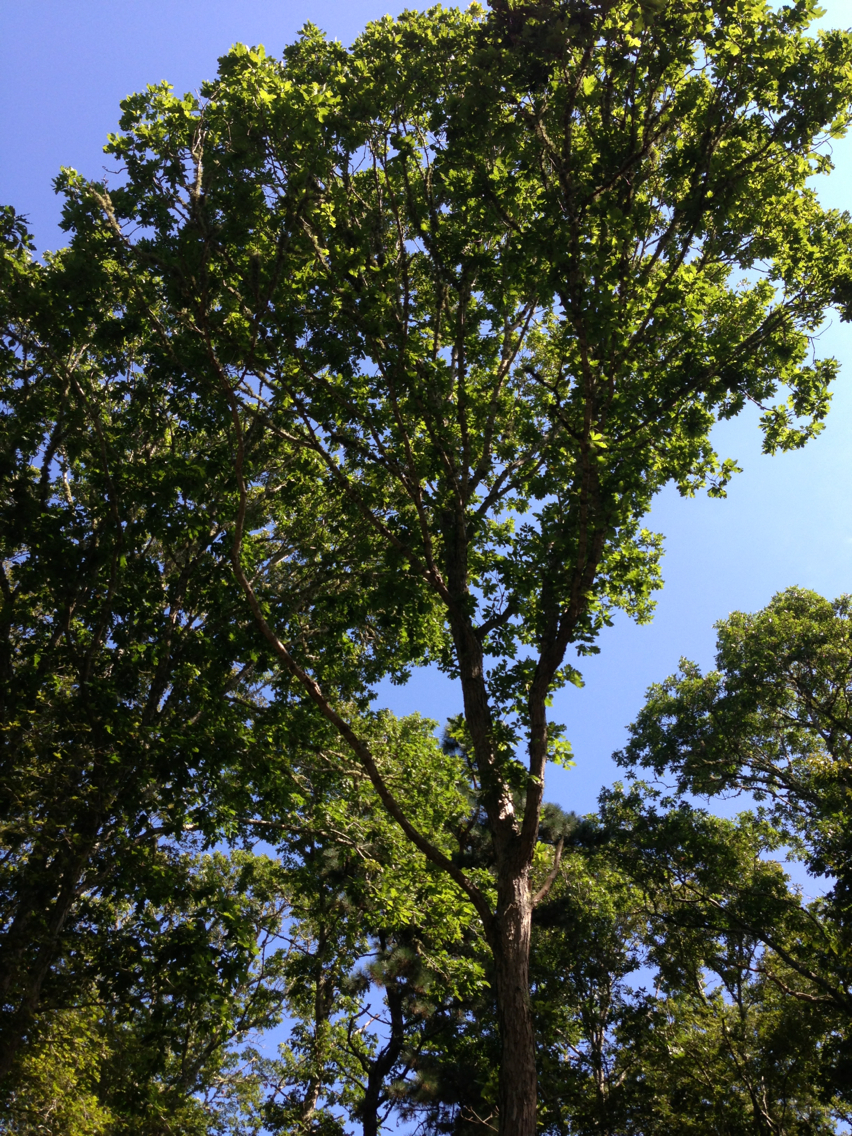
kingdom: Plantae
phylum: Tracheophyta
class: Magnoliopsida
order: Fagales
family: Fagaceae
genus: Quercus
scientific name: Quercus alba
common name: White oak
